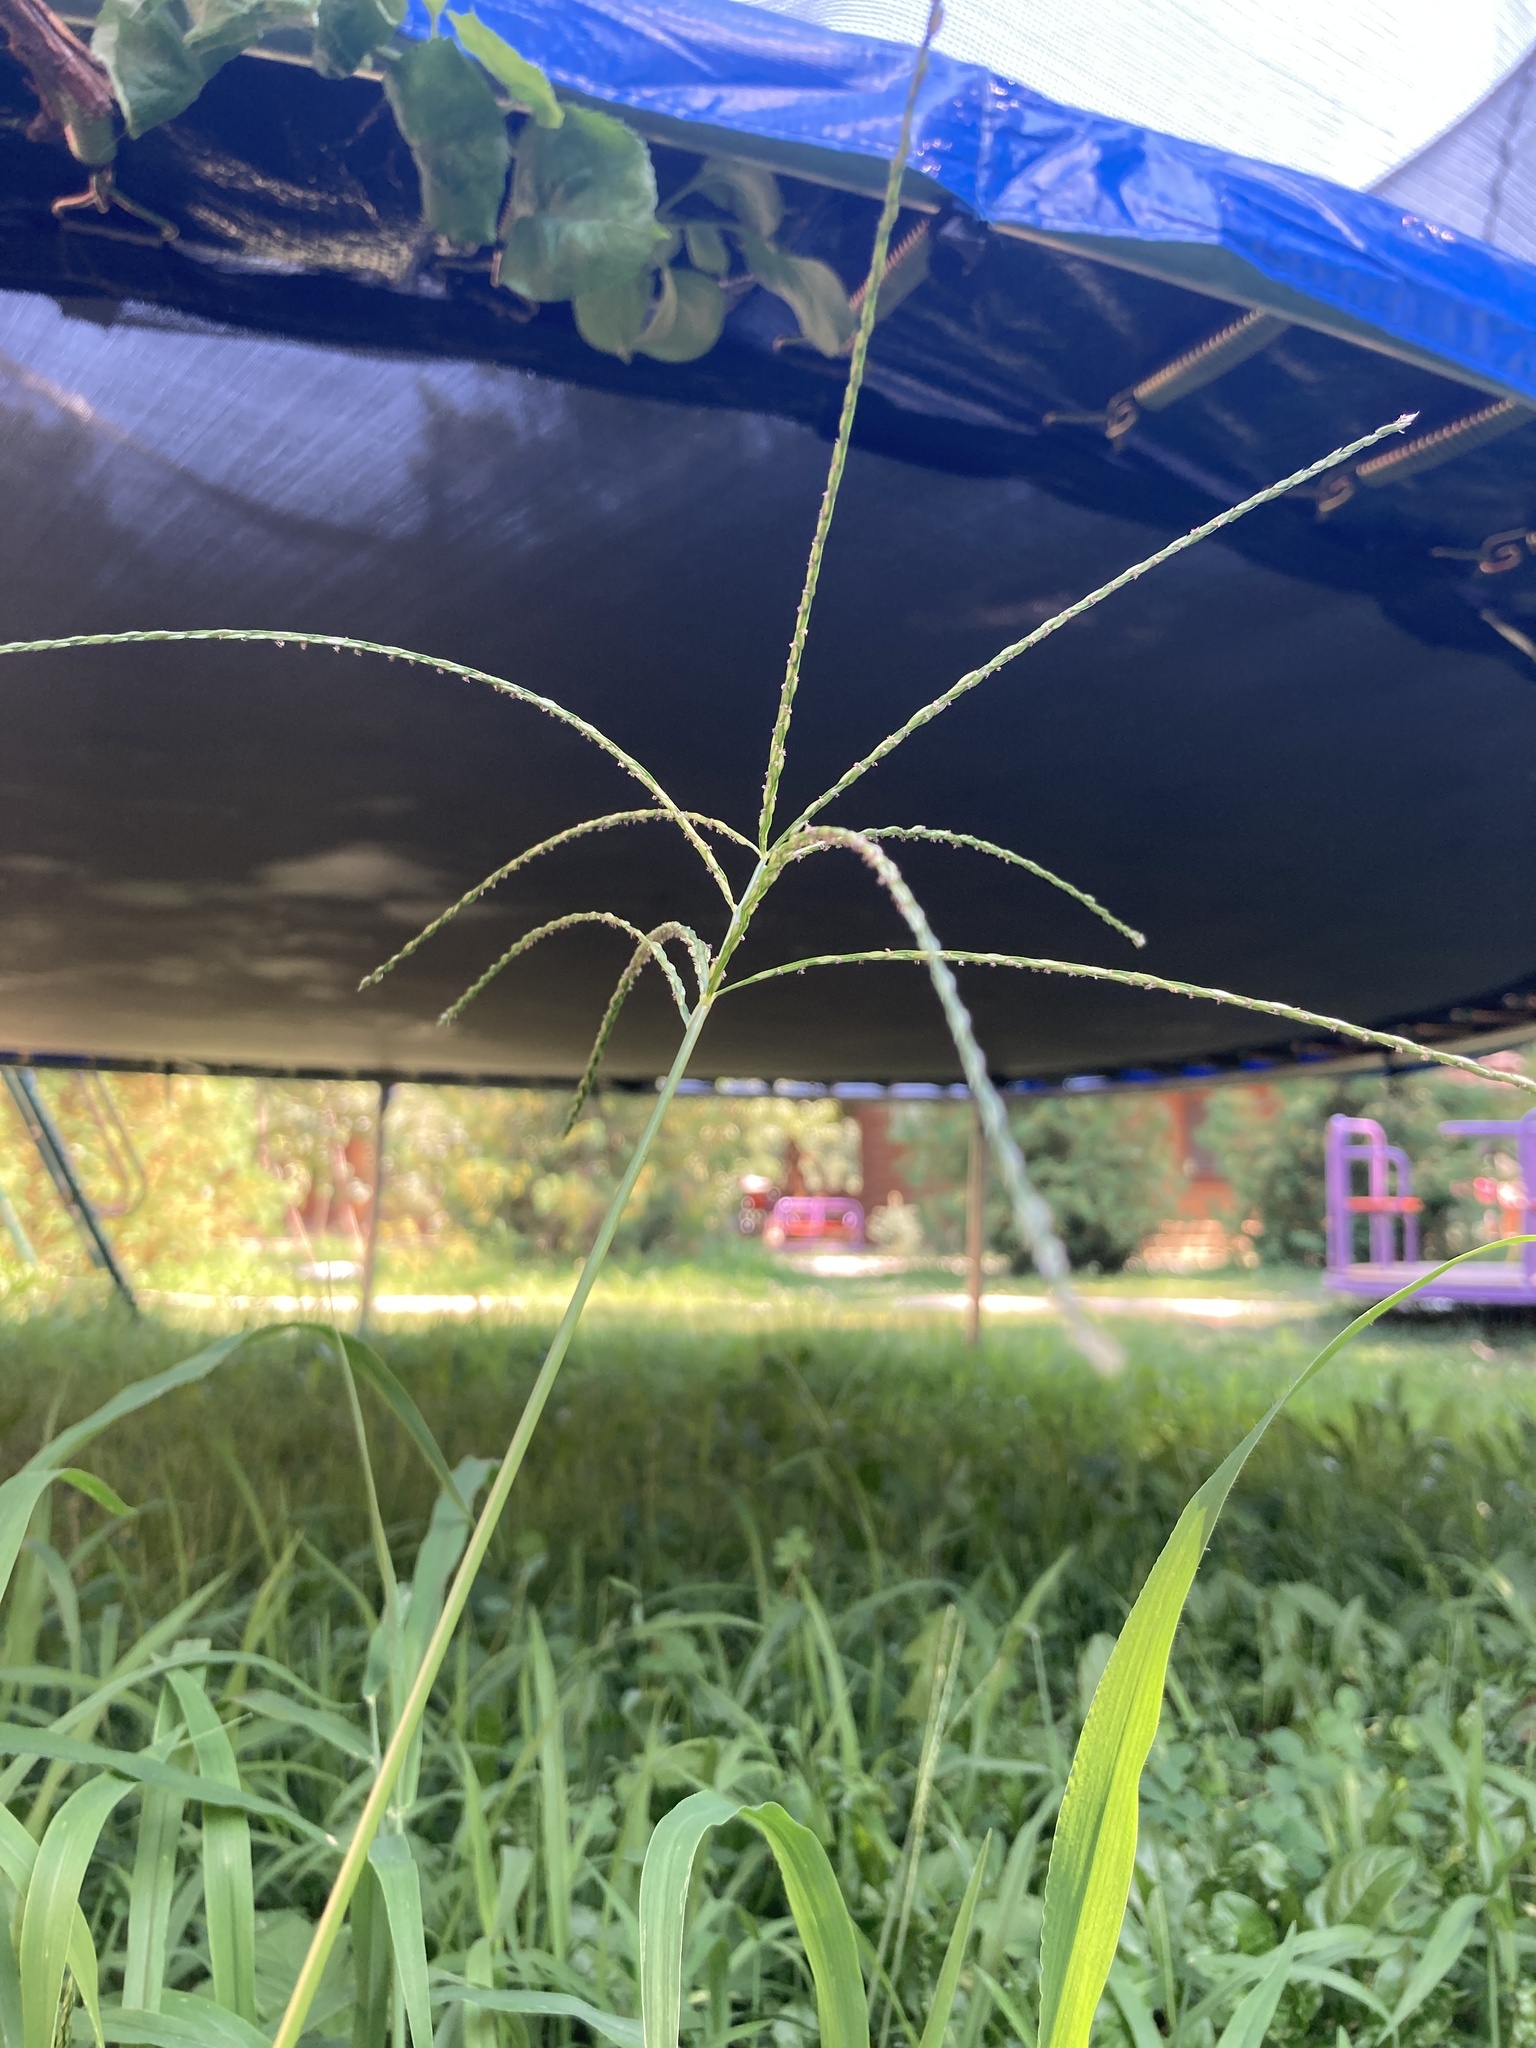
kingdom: Plantae
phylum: Tracheophyta
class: Liliopsida
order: Poales
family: Poaceae
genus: Digitaria
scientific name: Digitaria sanguinalis
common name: Hairy crabgrass
